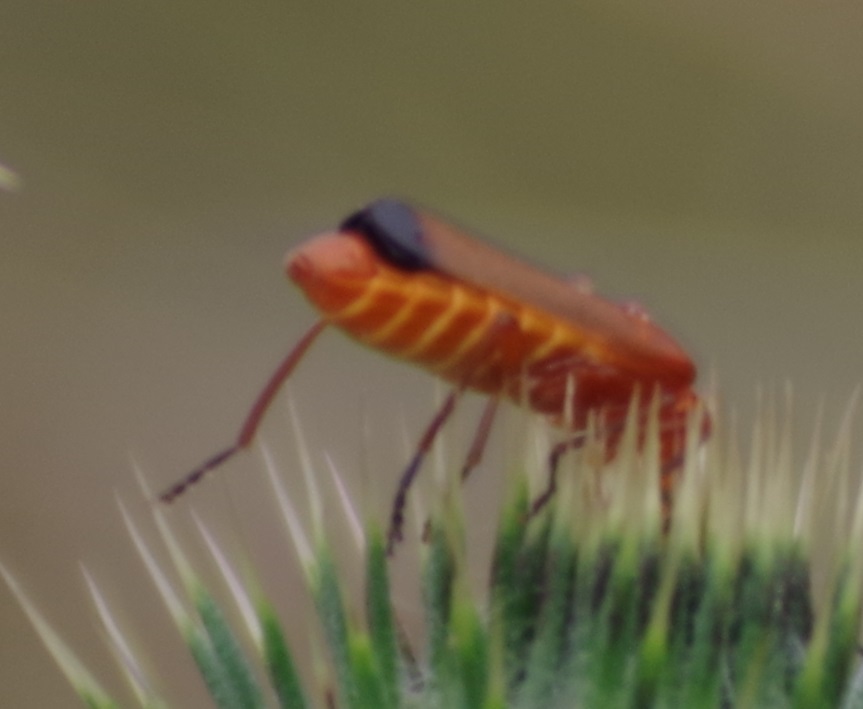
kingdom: Animalia
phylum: Arthropoda
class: Insecta
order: Coleoptera
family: Cantharidae
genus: Rhagonycha
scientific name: Rhagonycha fulva
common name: Common red soldier beetle
